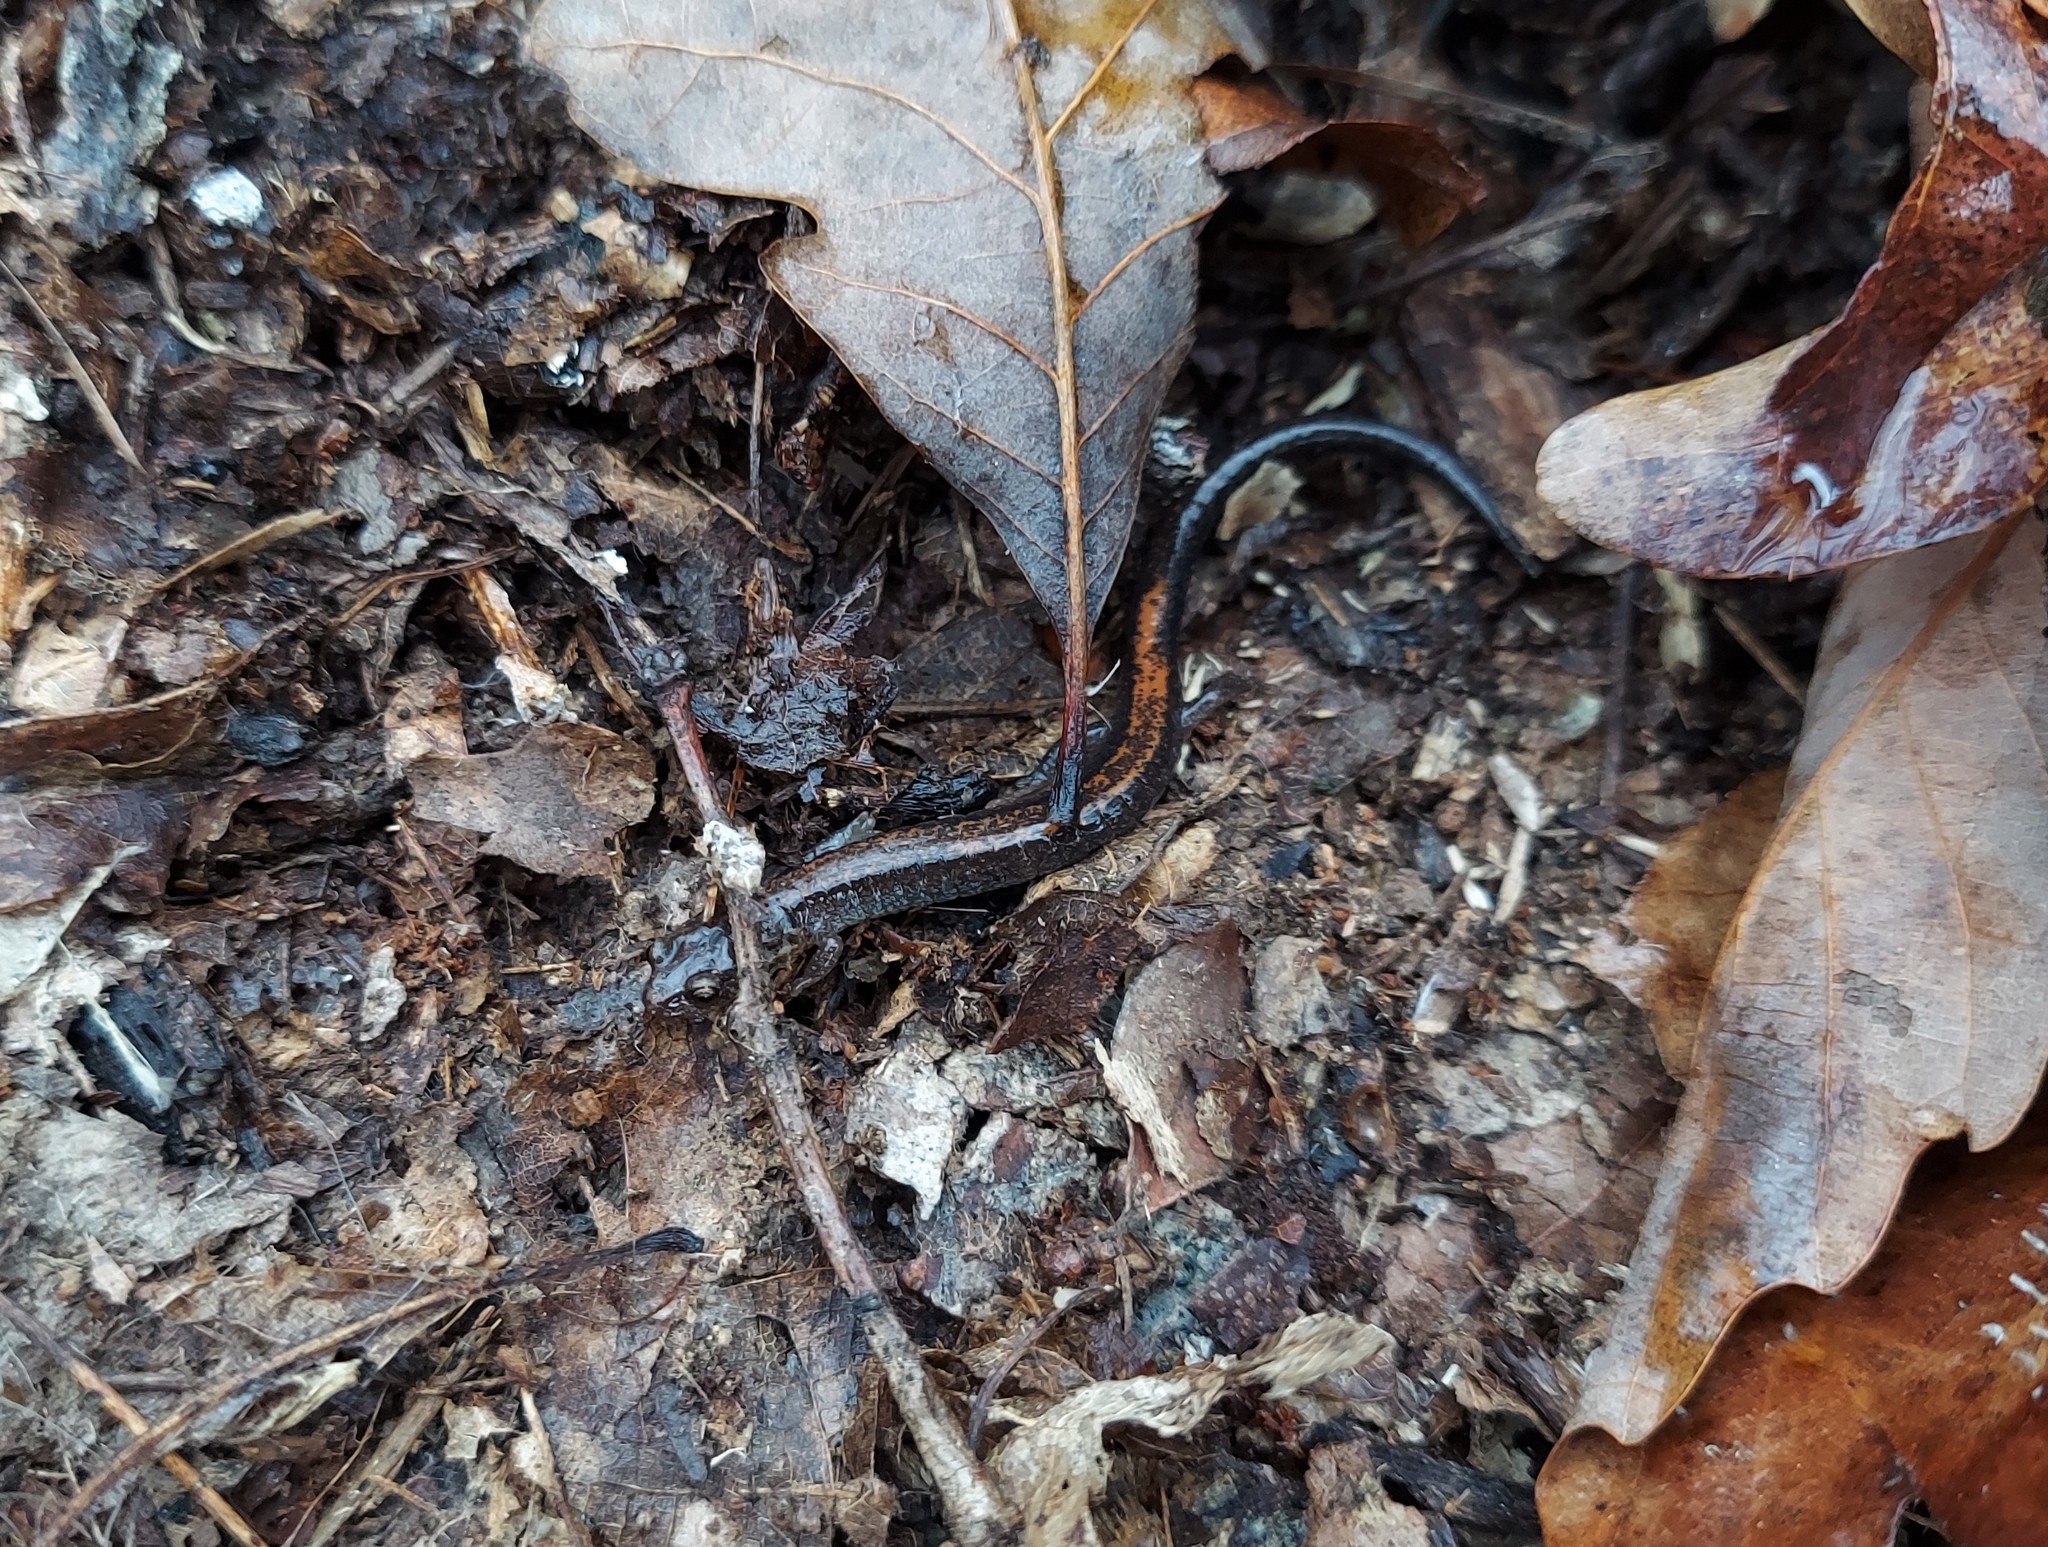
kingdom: Animalia
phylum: Chordata
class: Amphibia
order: Caudata
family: Plethodontidae
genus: Plethodon
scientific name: Plethodon cinereus
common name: Redback salamander
